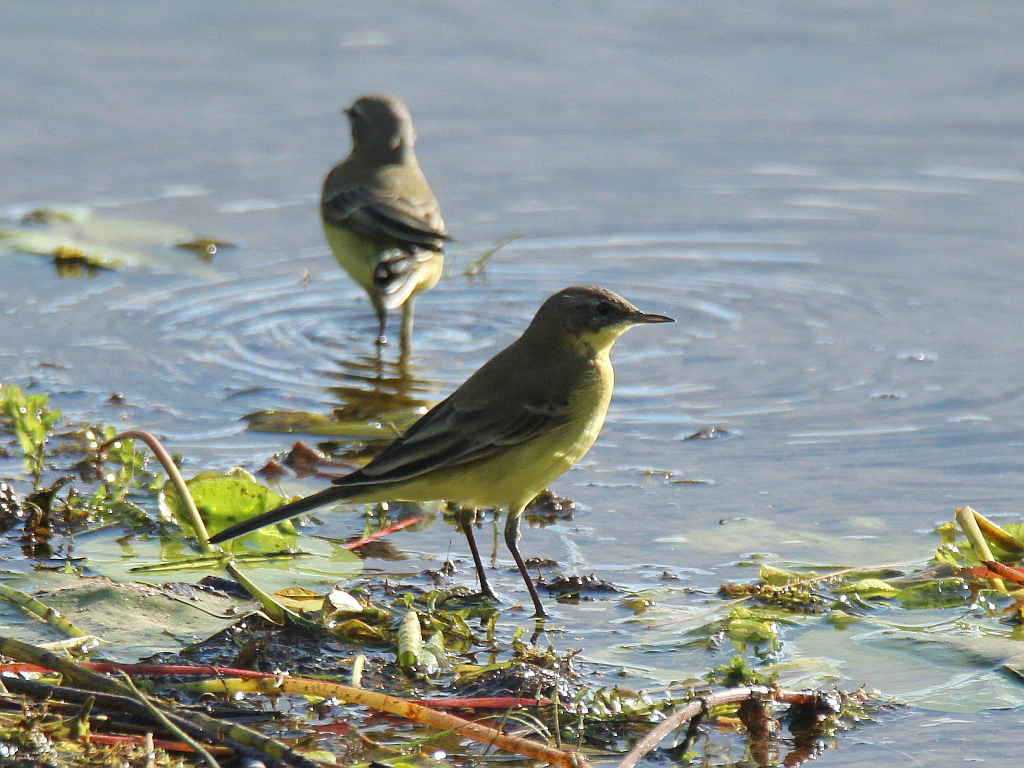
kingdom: Animalia
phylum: Chordata
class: Aves
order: Passeriformes
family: Motacillidae
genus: Motacilla
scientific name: Motacilla flava
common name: Western yellow wagtail
